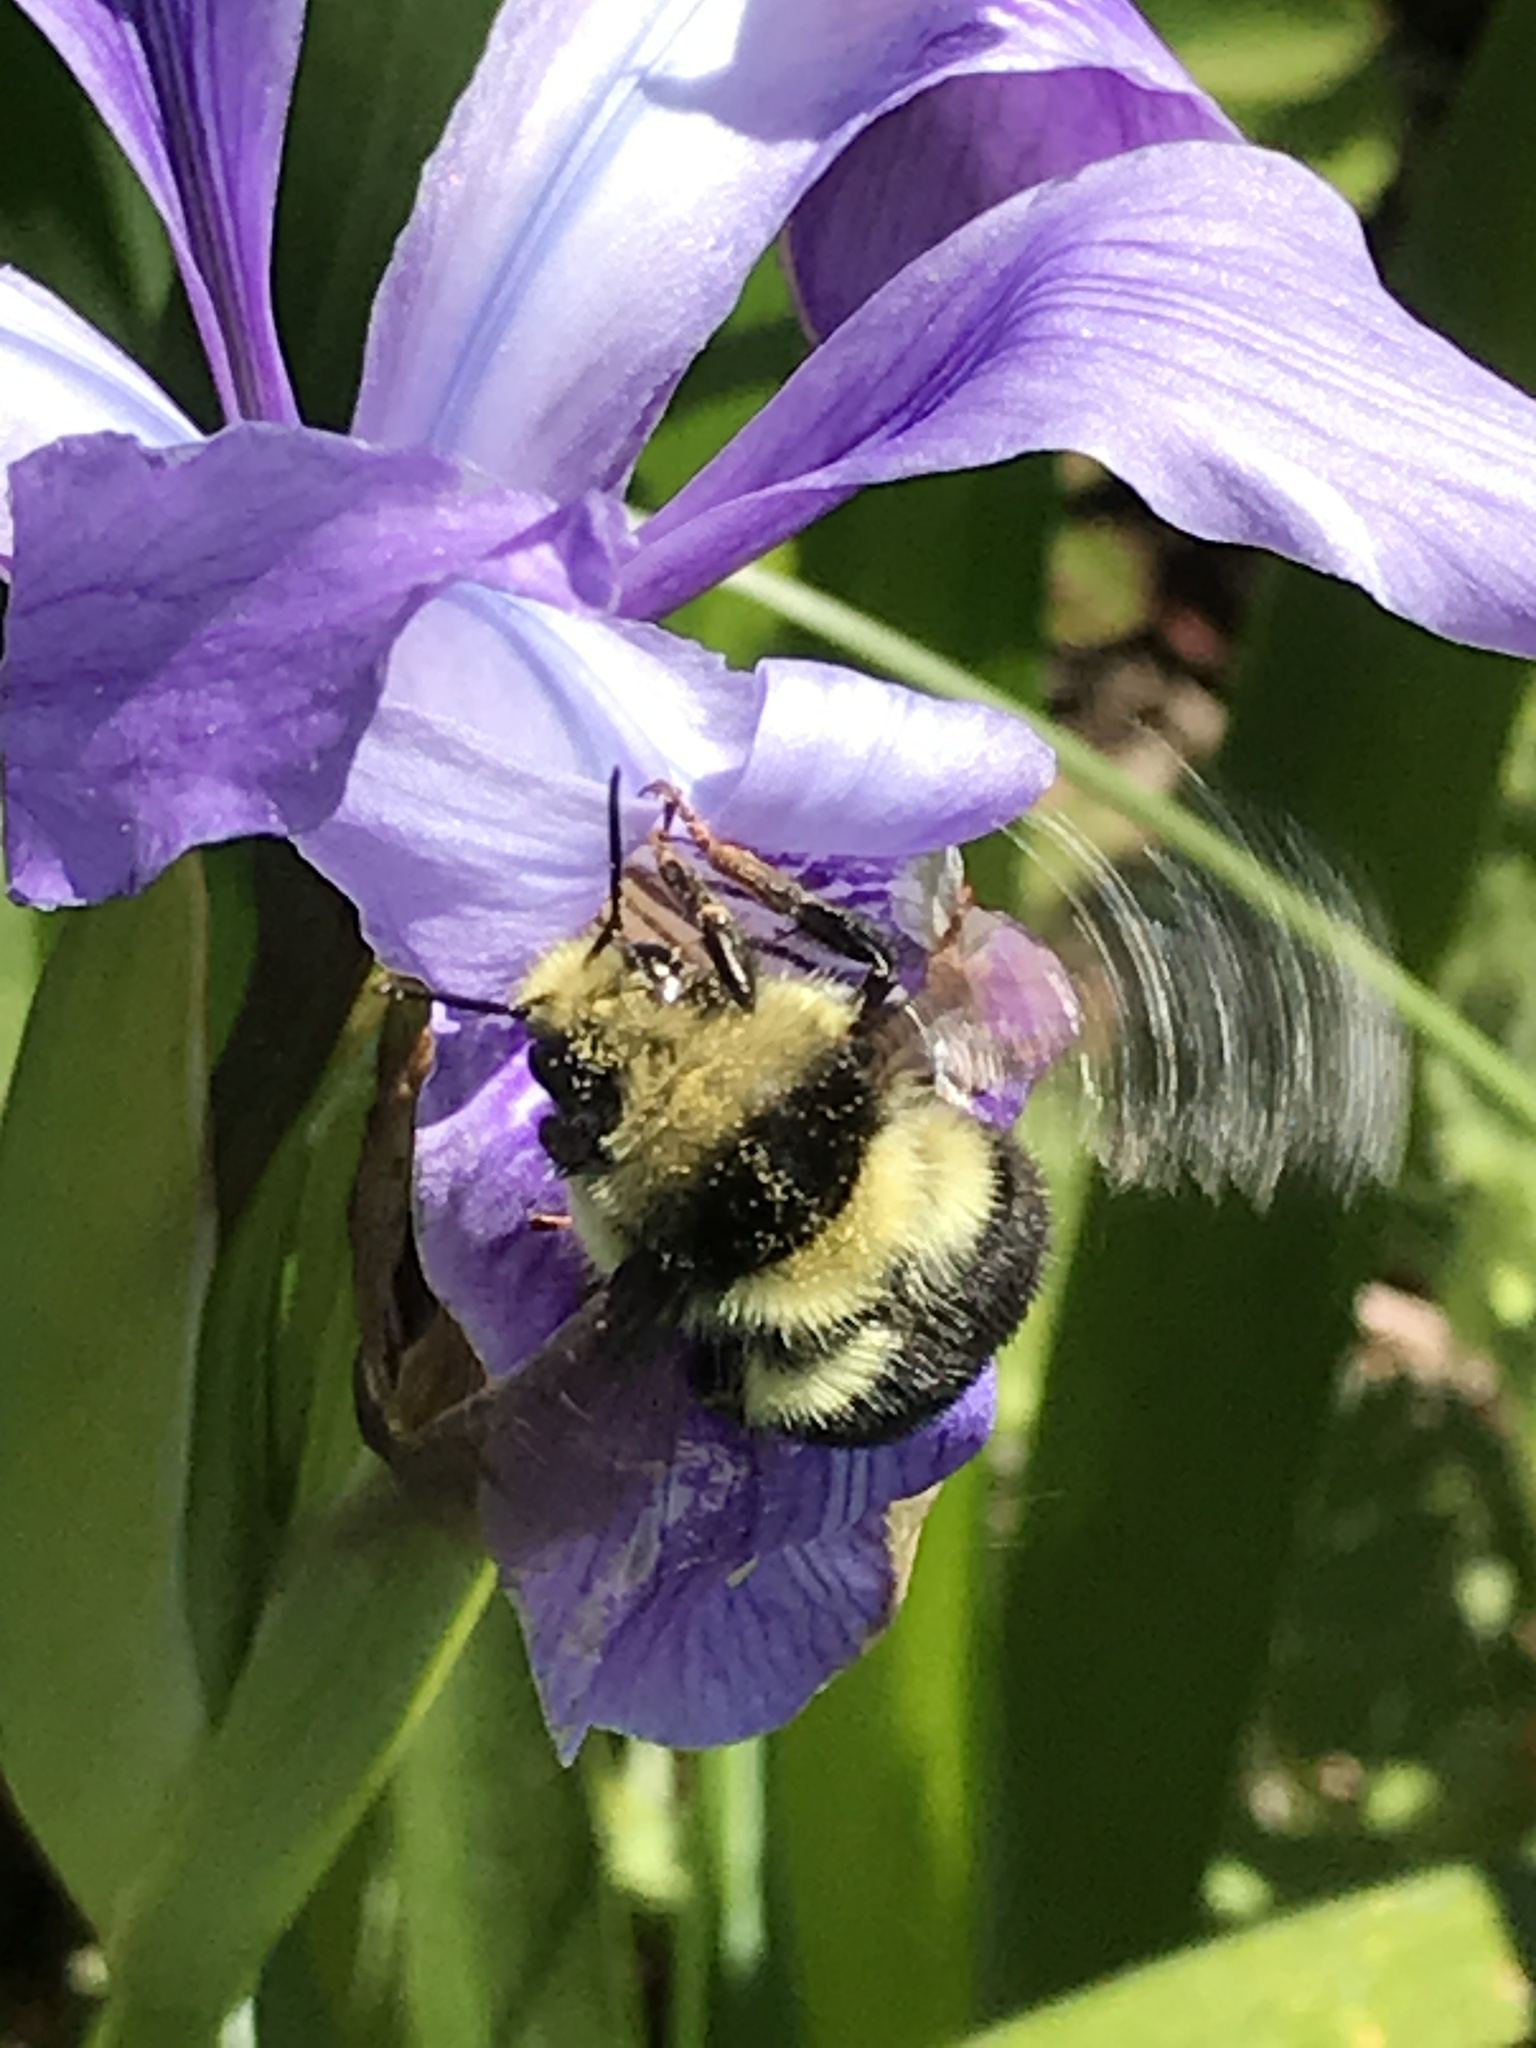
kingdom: Animalia
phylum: Arthropoda
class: Insecta
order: Hymenoptera
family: Apidae
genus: Bombus
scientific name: Bombus melanopygus
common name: Black tail bumble bee
